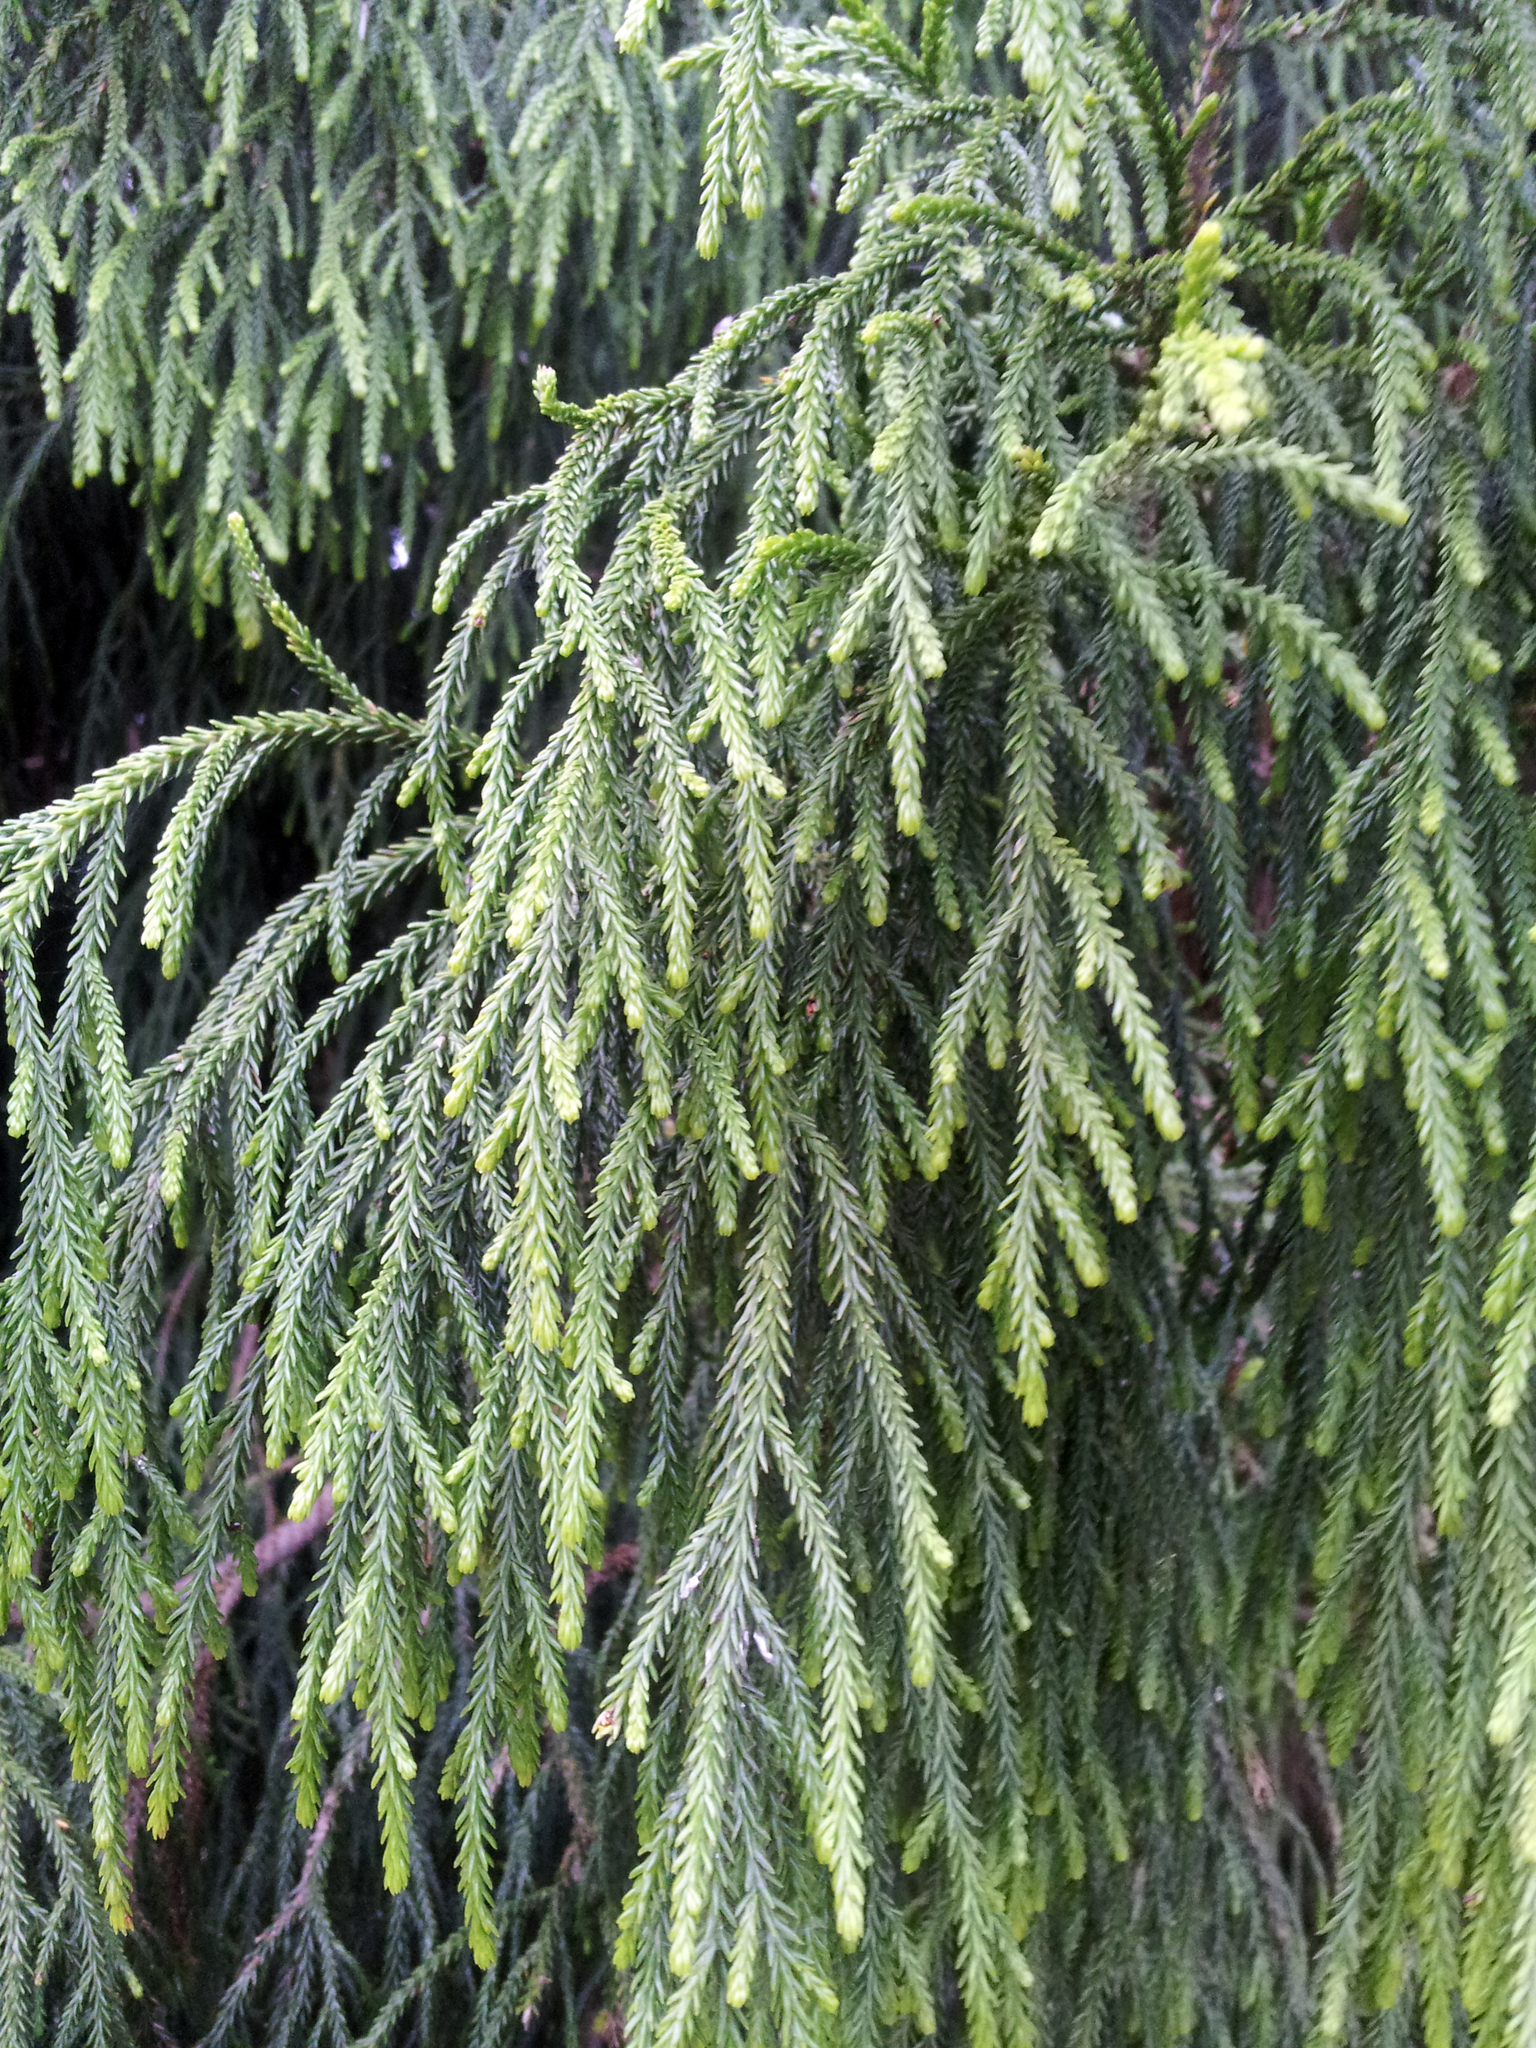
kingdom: Plantae
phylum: Tracheophyta
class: Pinopsida
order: Pinales
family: Podocarpaceae
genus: Dacrydium
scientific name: Dacrydium cupressinum
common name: Red pine
